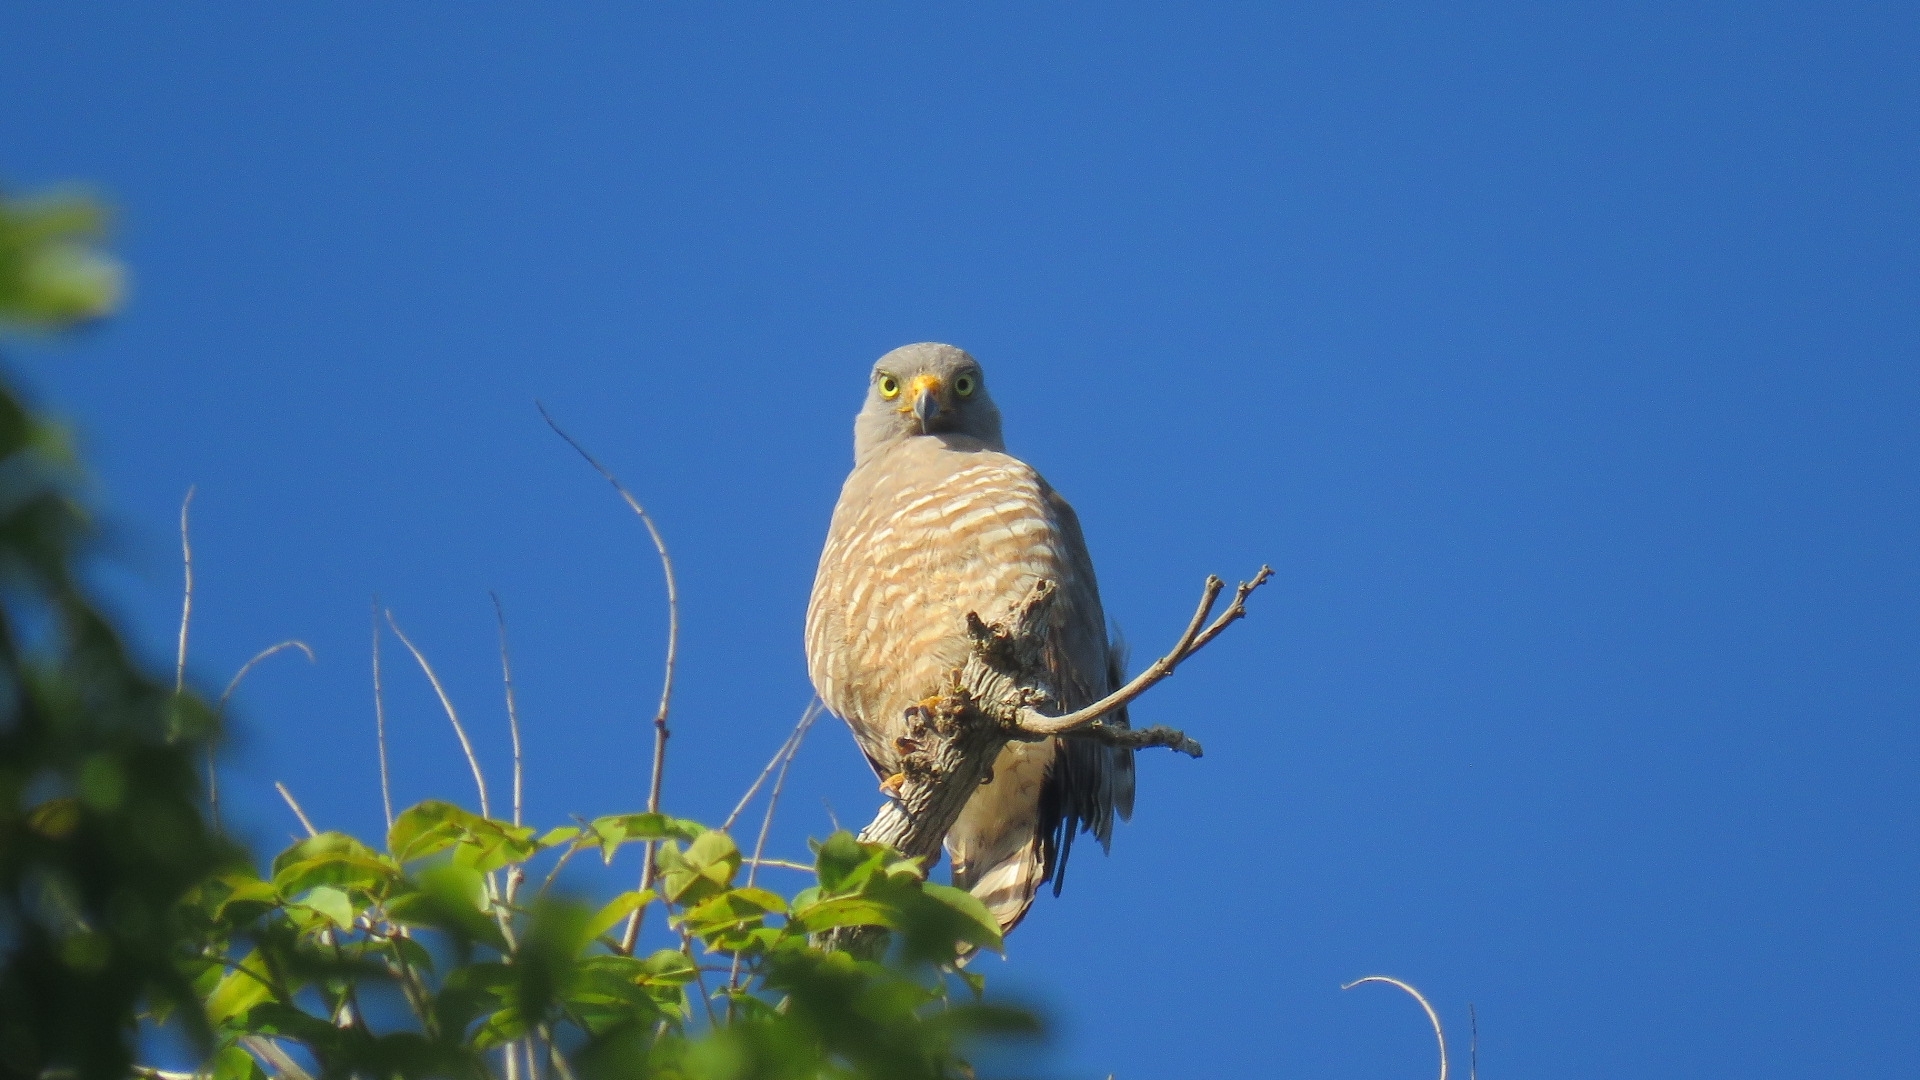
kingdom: Animalia
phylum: Chordata
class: Aves
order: Accipitriformes
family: Accipitridae
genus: Rupornis
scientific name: Rupornis magnirostris
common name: Roadside hawk
